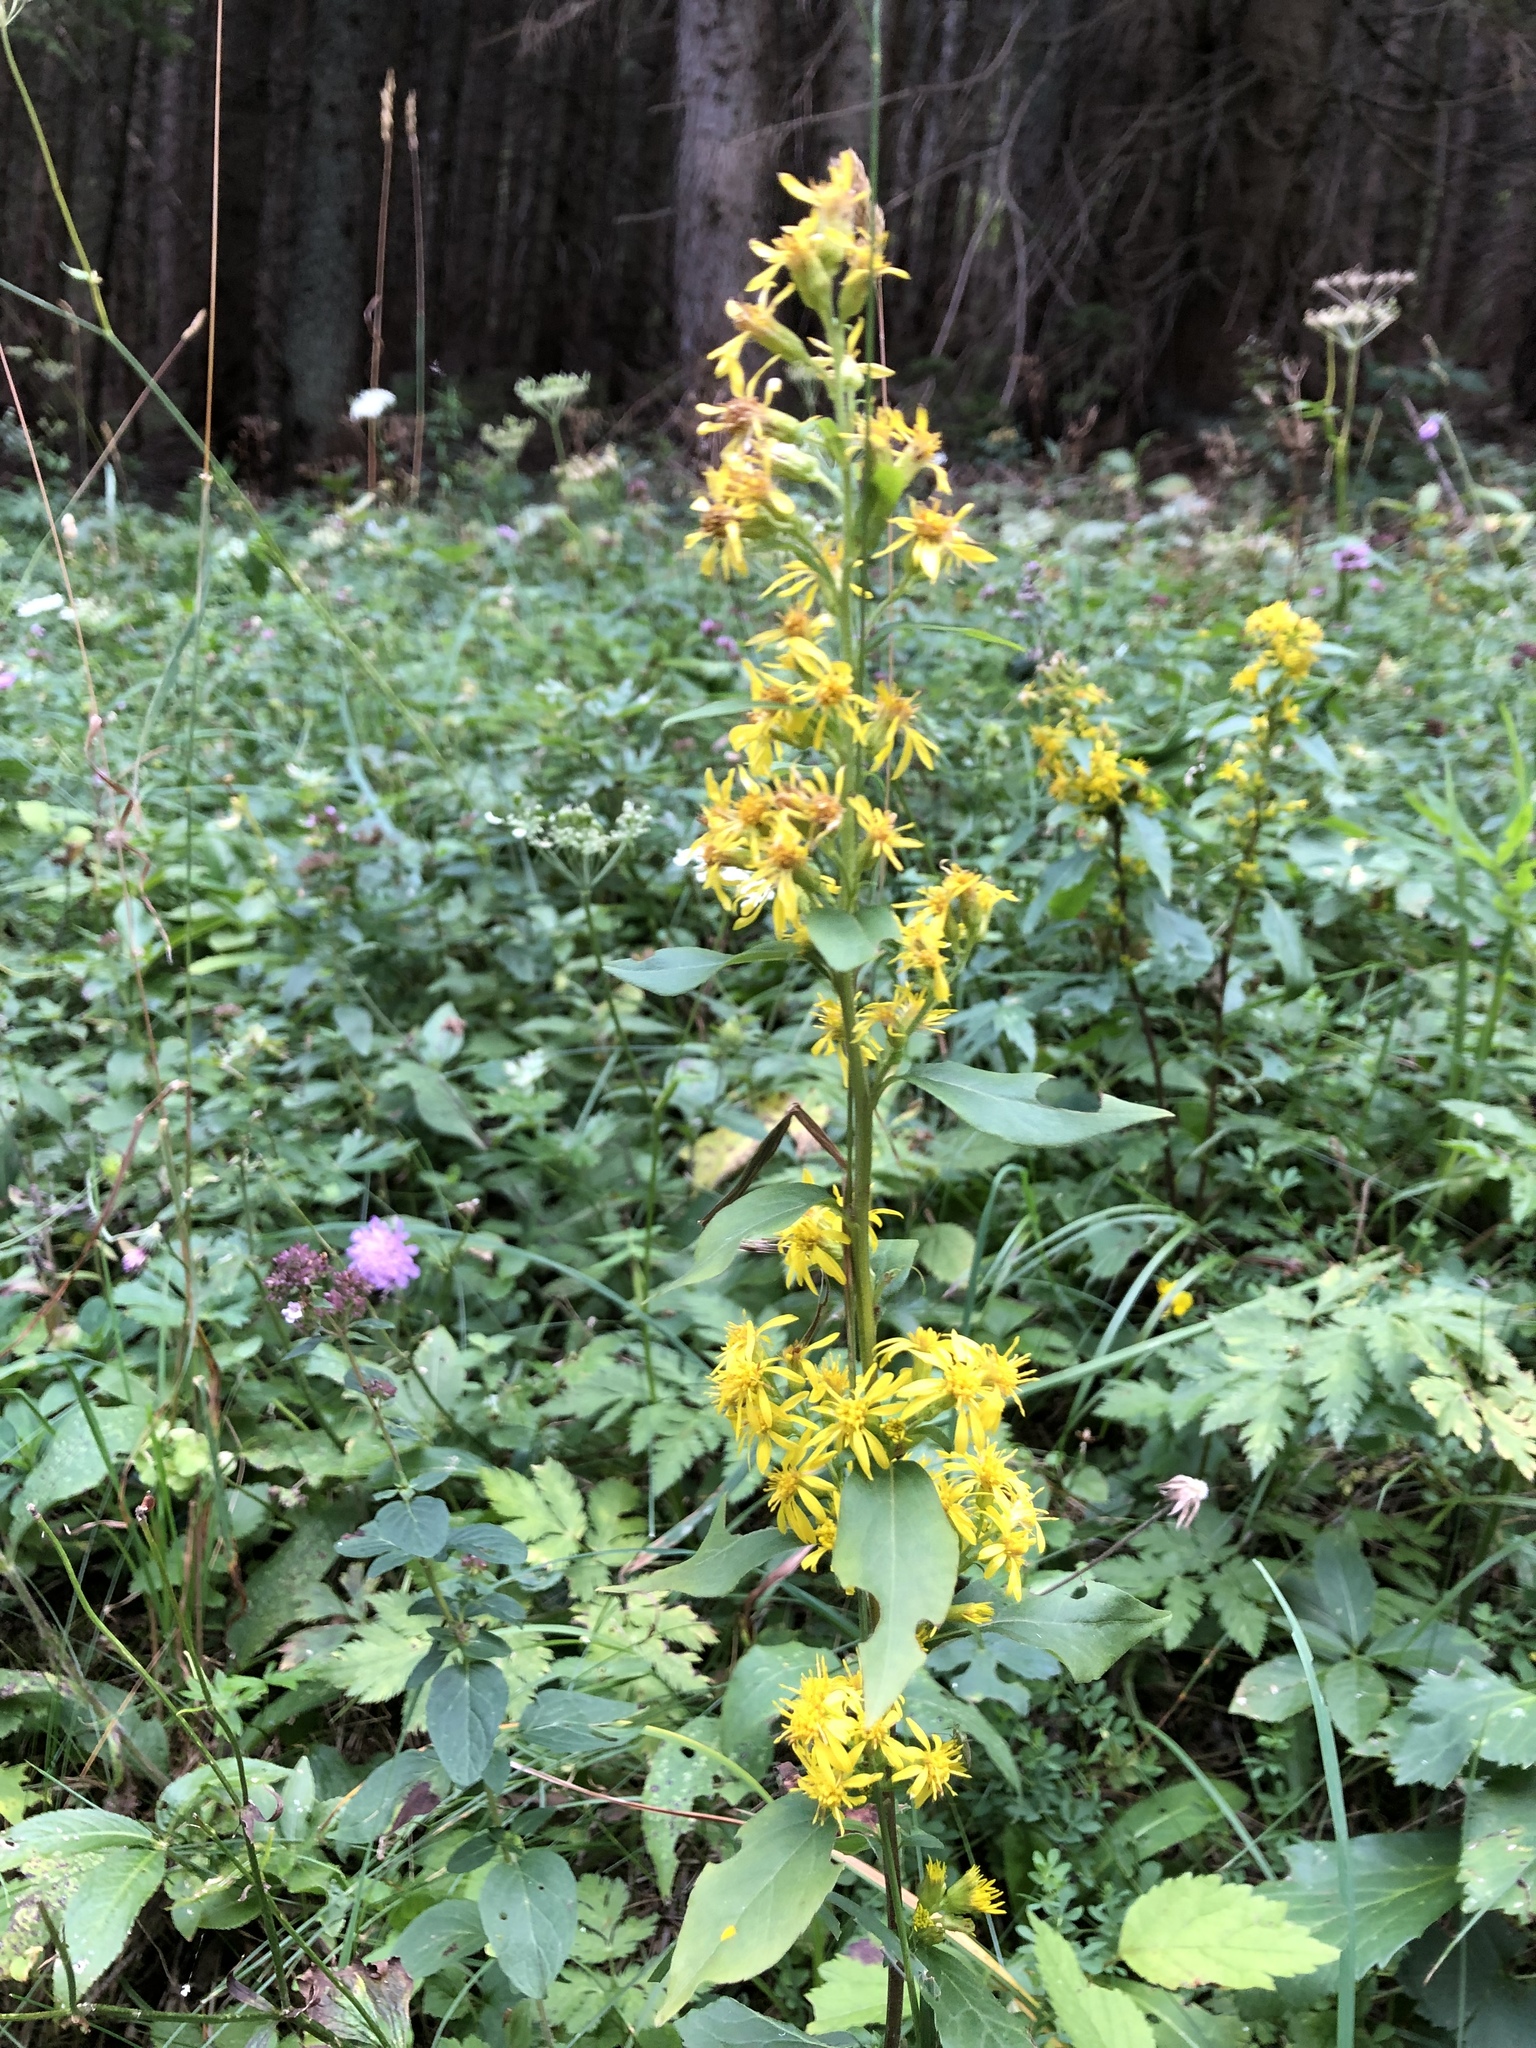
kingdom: Plantae
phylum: Tracheophyta
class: Magnoliopsida
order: Asterales
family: Asteraceae
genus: Solidago
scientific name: Solidago virgaurea
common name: Goldenrod
